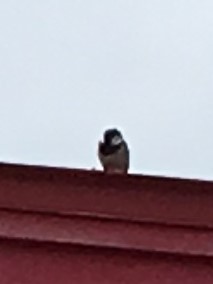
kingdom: Animalia
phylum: Chordata
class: Aves
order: Passeriformes
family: Passeridae
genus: Passer
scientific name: Passer domesticus
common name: House sparrow
